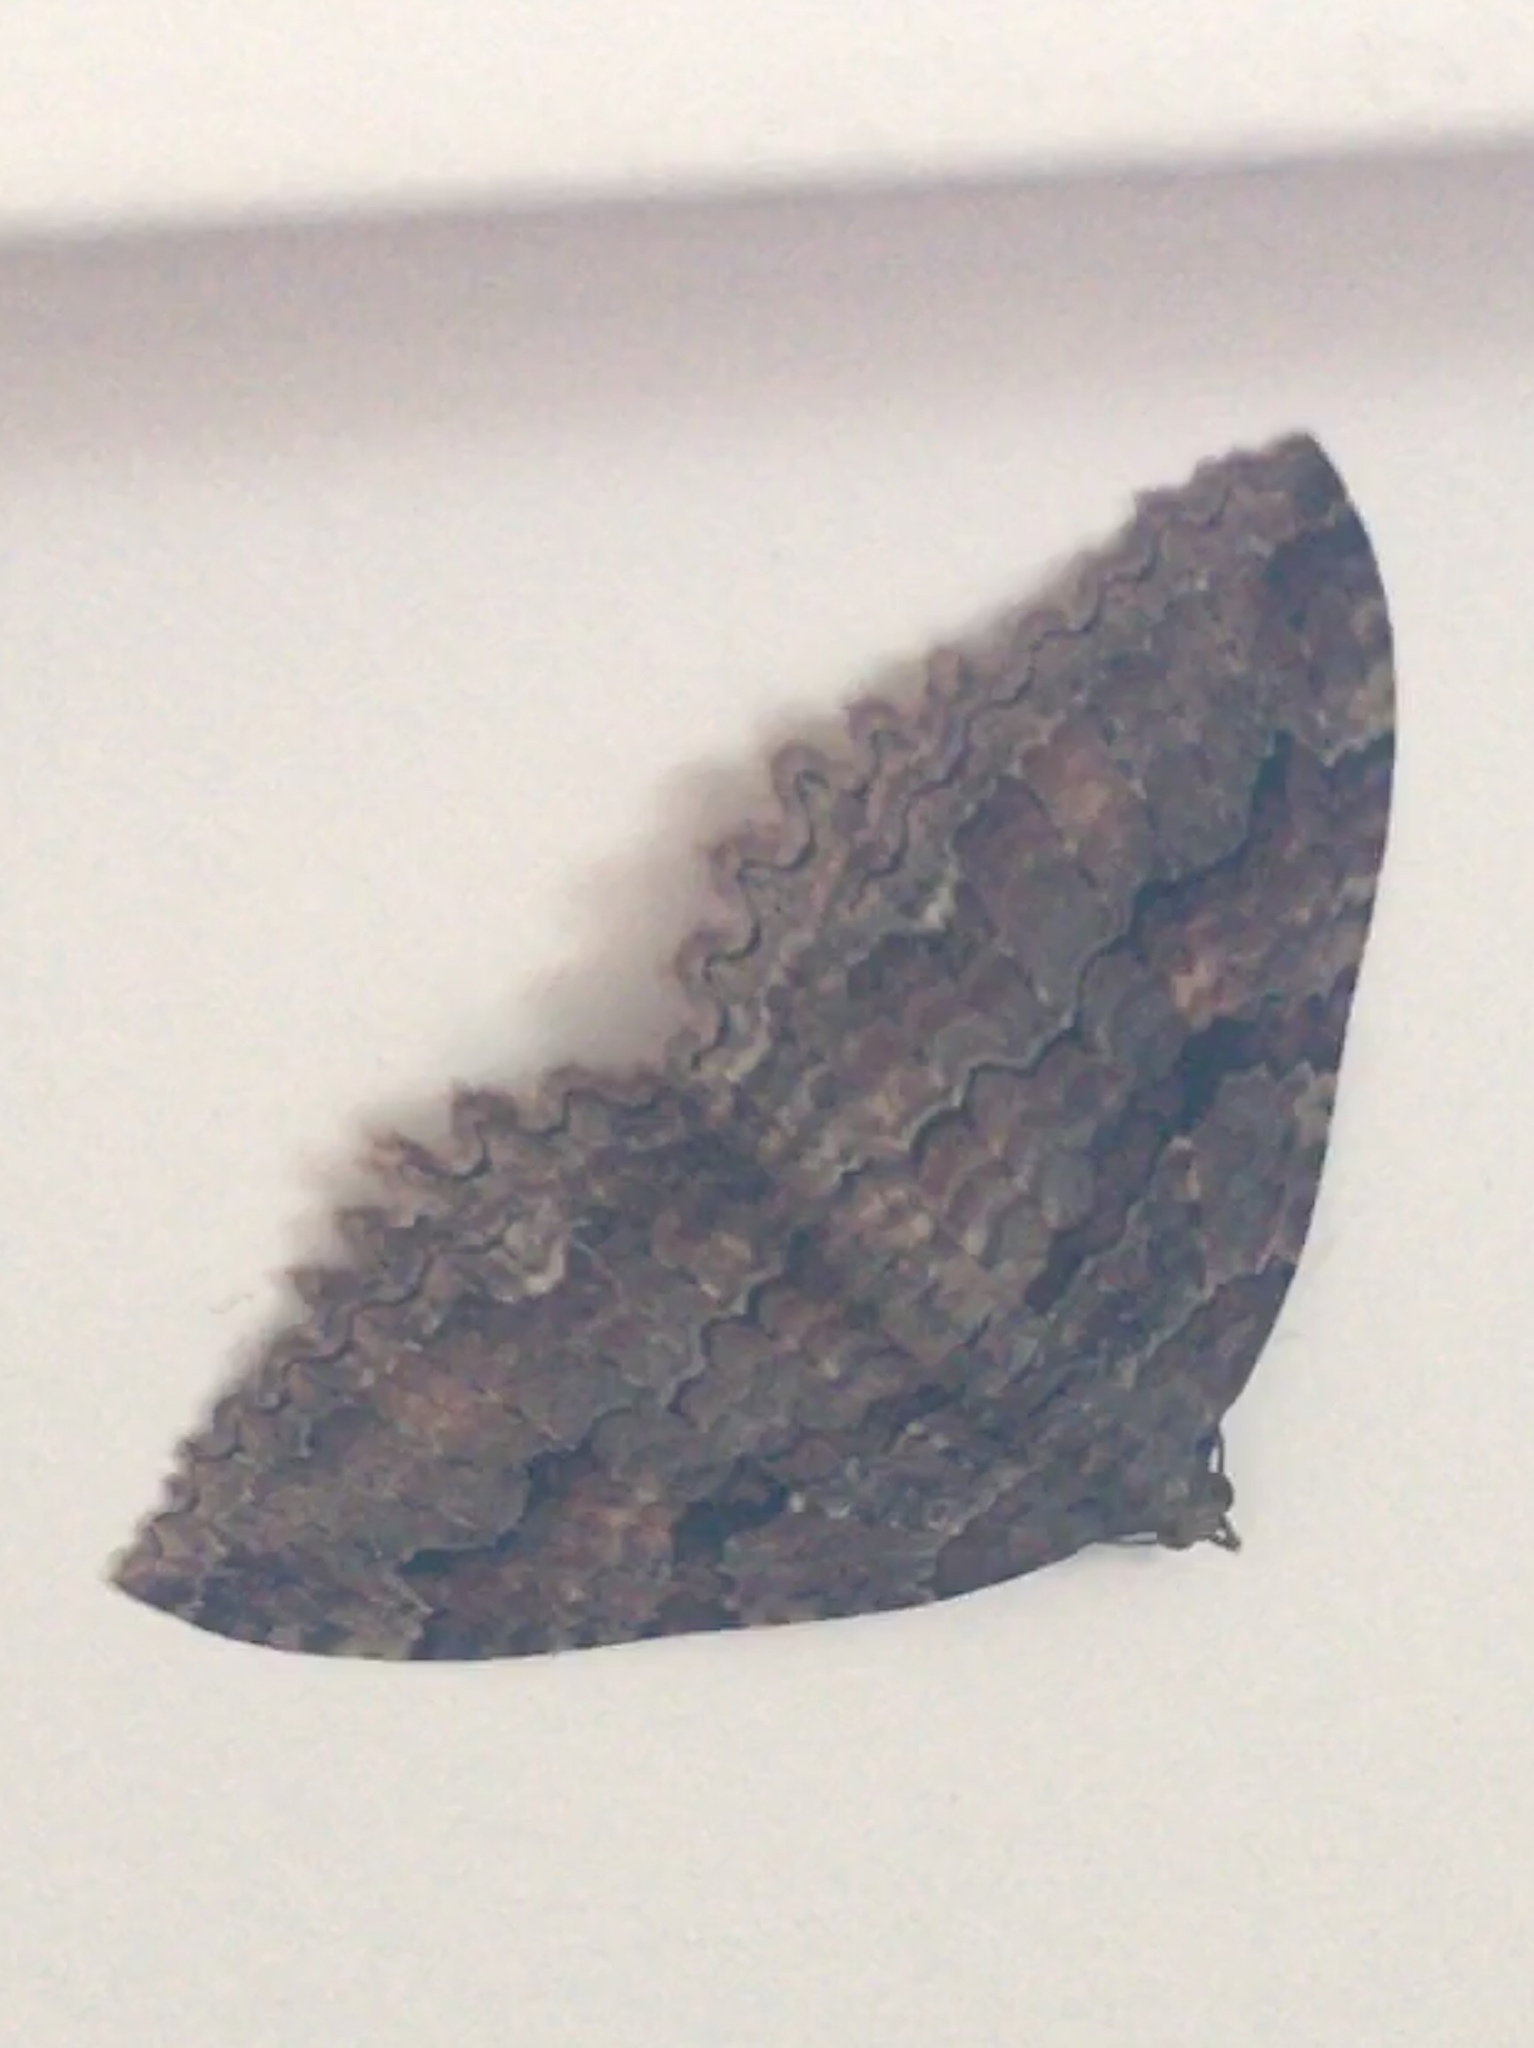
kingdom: Animalia
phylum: Arthropoda
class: Insecta
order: Lepidoptera
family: Geometridae
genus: Triphosa
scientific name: Triphosa haesitata
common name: Tissue moth
